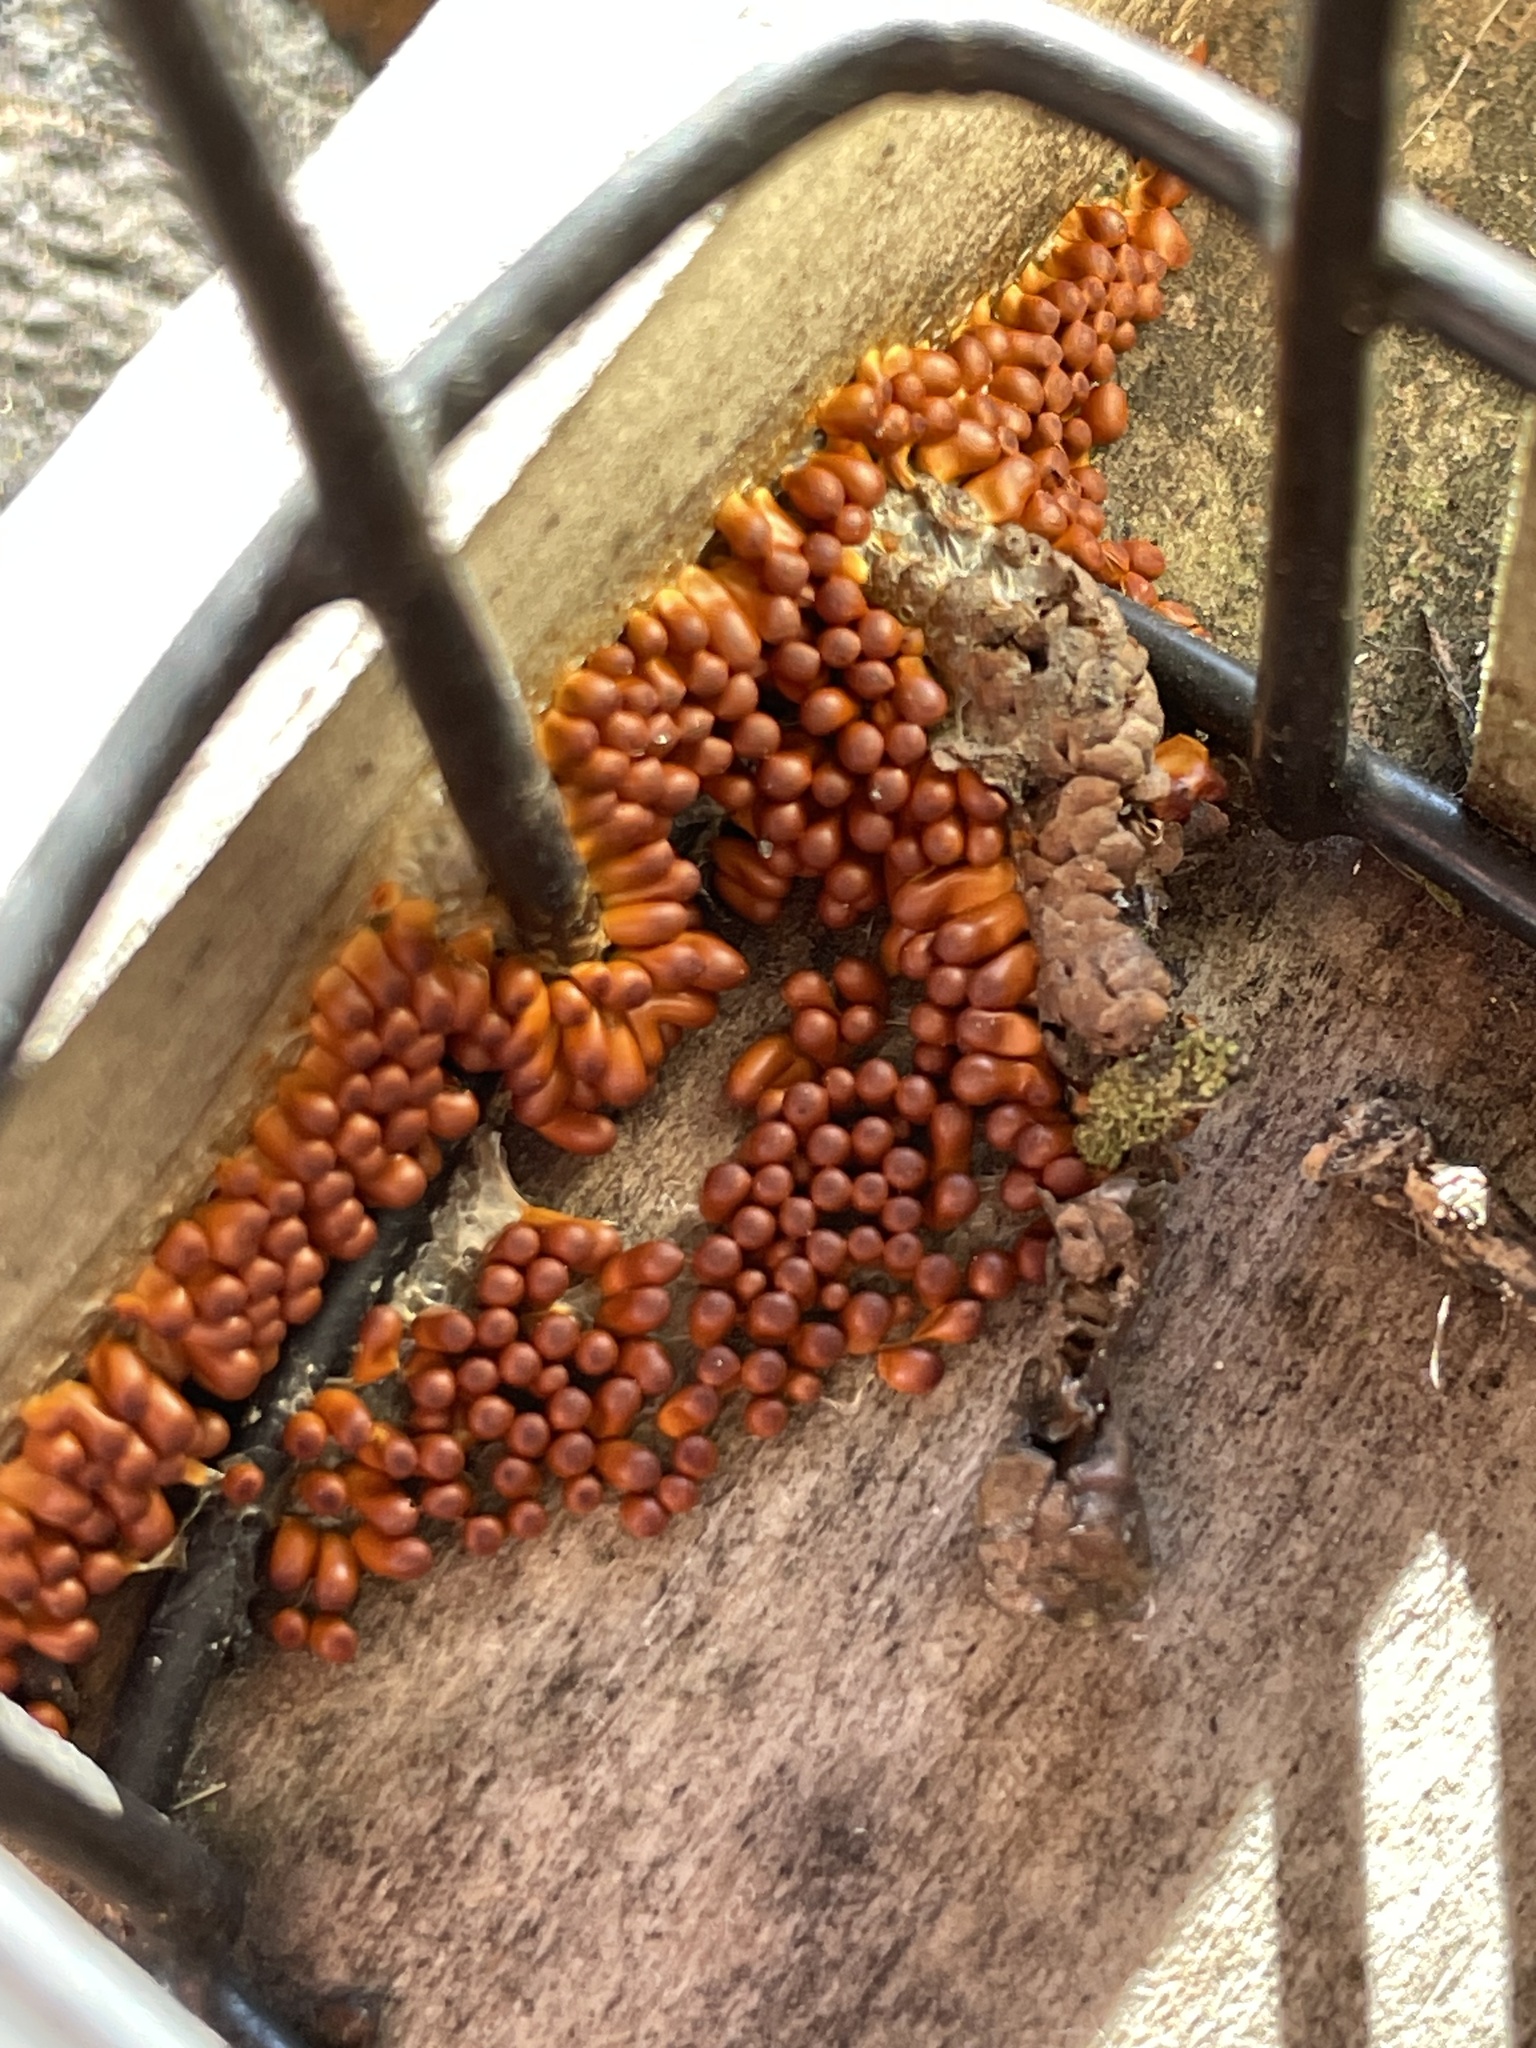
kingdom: Protozoa
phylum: Mycetozoa
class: Myxomycetes
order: Physarales
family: Physaraceae
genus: Leocarpus
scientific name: Leocarpus fragilis
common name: Insect-egg slime
